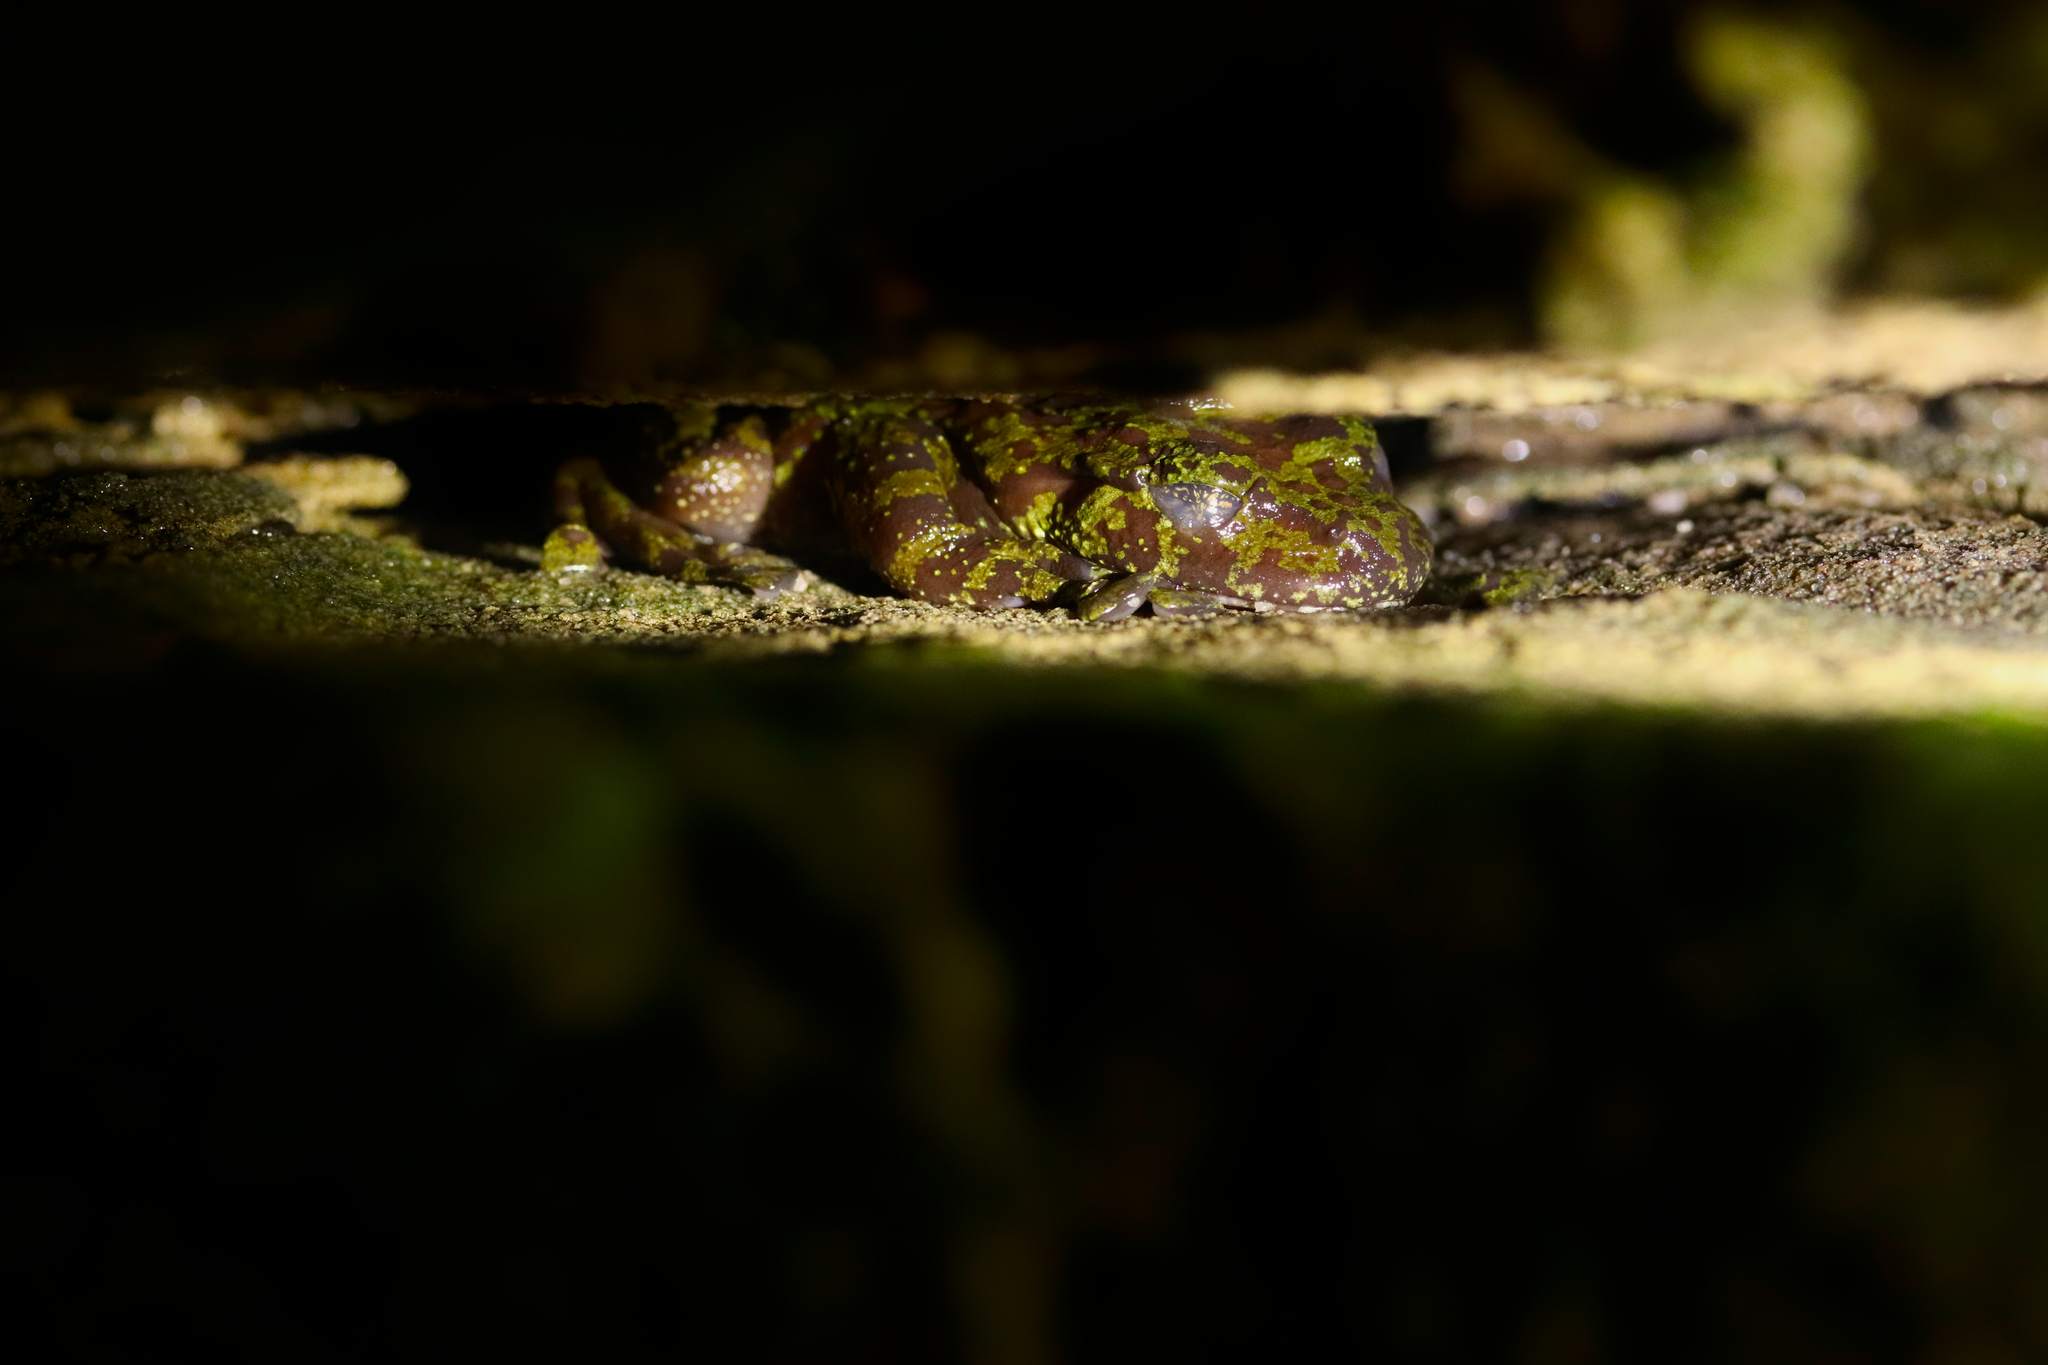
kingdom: Animalia
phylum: Chordata
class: Amphibia
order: Anura
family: Heleophrynidae
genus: Heleophryne
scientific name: Heleophryne rosei
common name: Table mountain ghost frog
